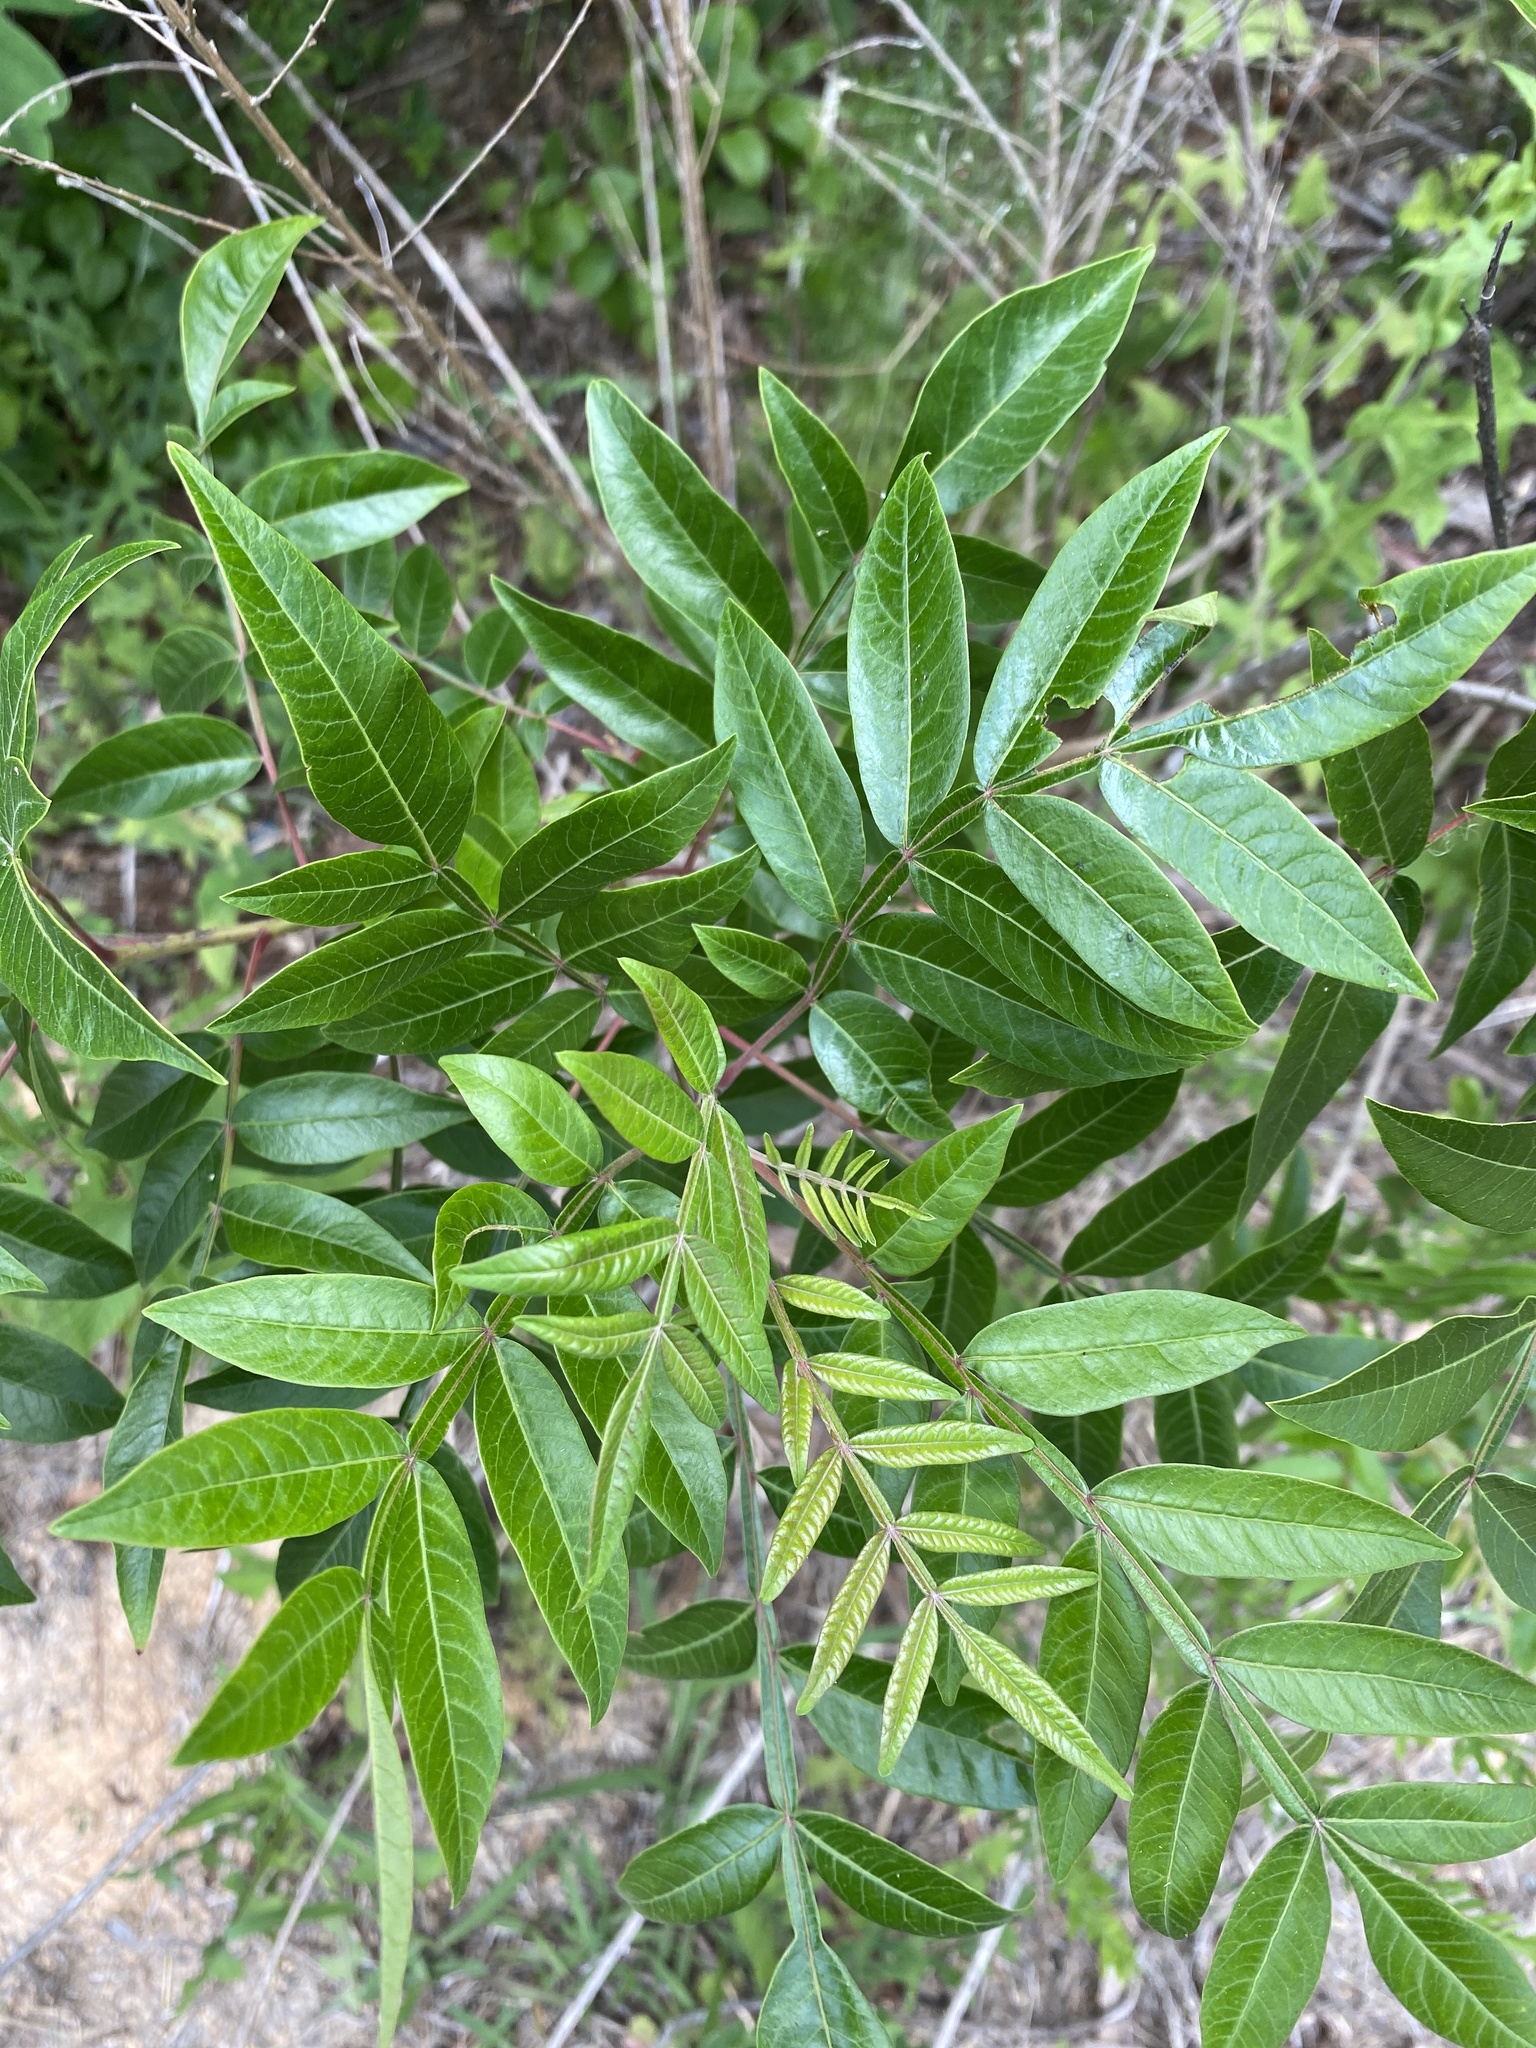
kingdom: Plantae
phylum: Tracheophyta
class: Magnoliopsida
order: Sapindales
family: Anacardiaceae
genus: Rhus
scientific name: Rhus copallina
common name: Shining sumac
